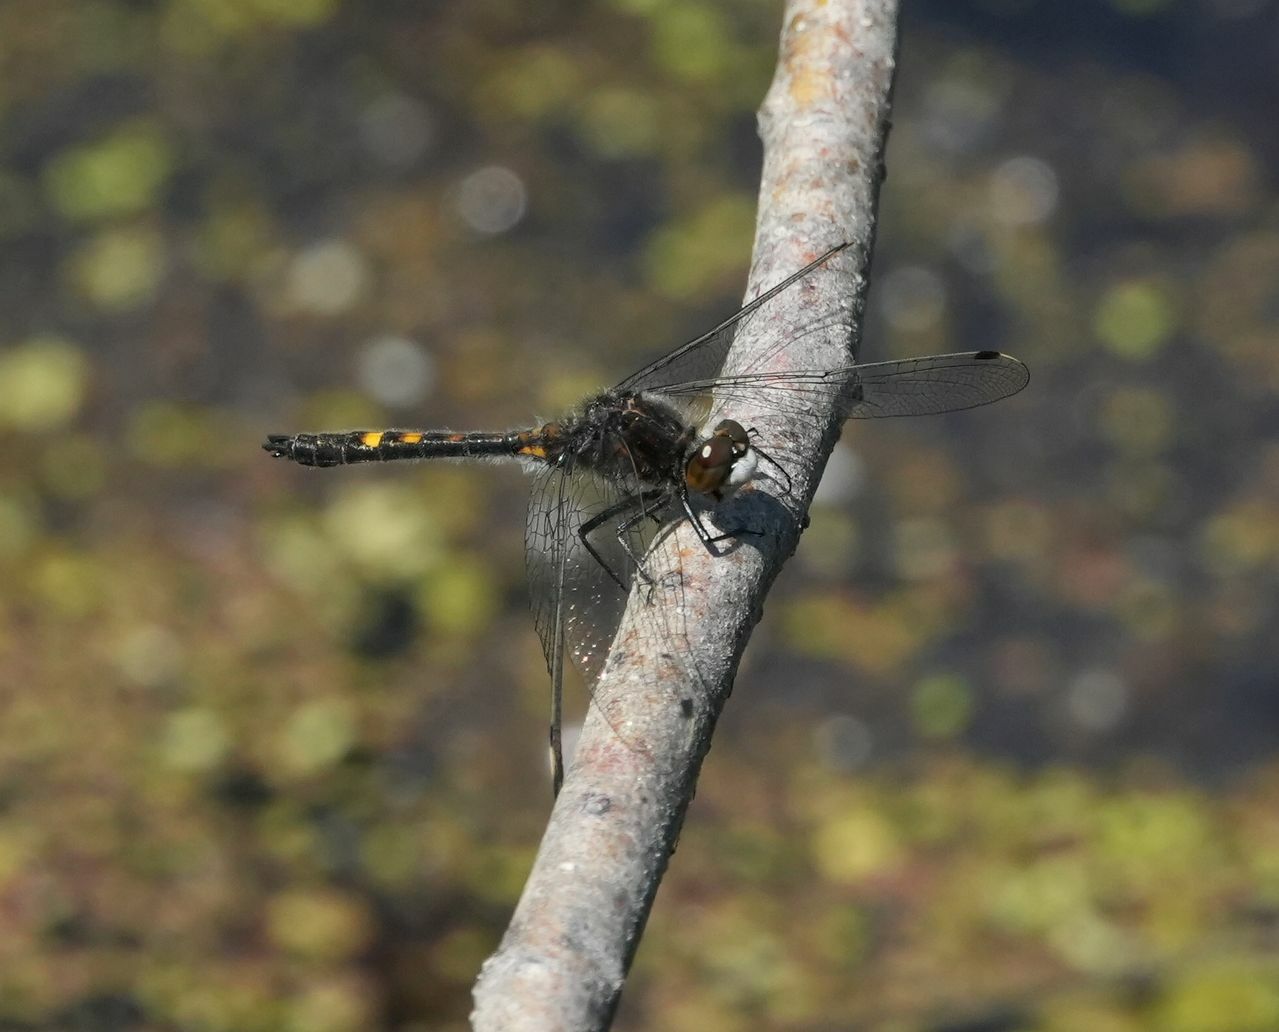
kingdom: Animalia
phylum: Arthropoda
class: Insecta
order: Odonata
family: Libellulidae
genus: Leucorrhinia
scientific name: Leucorrhinia intacta
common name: Dot-tailed whiteface
